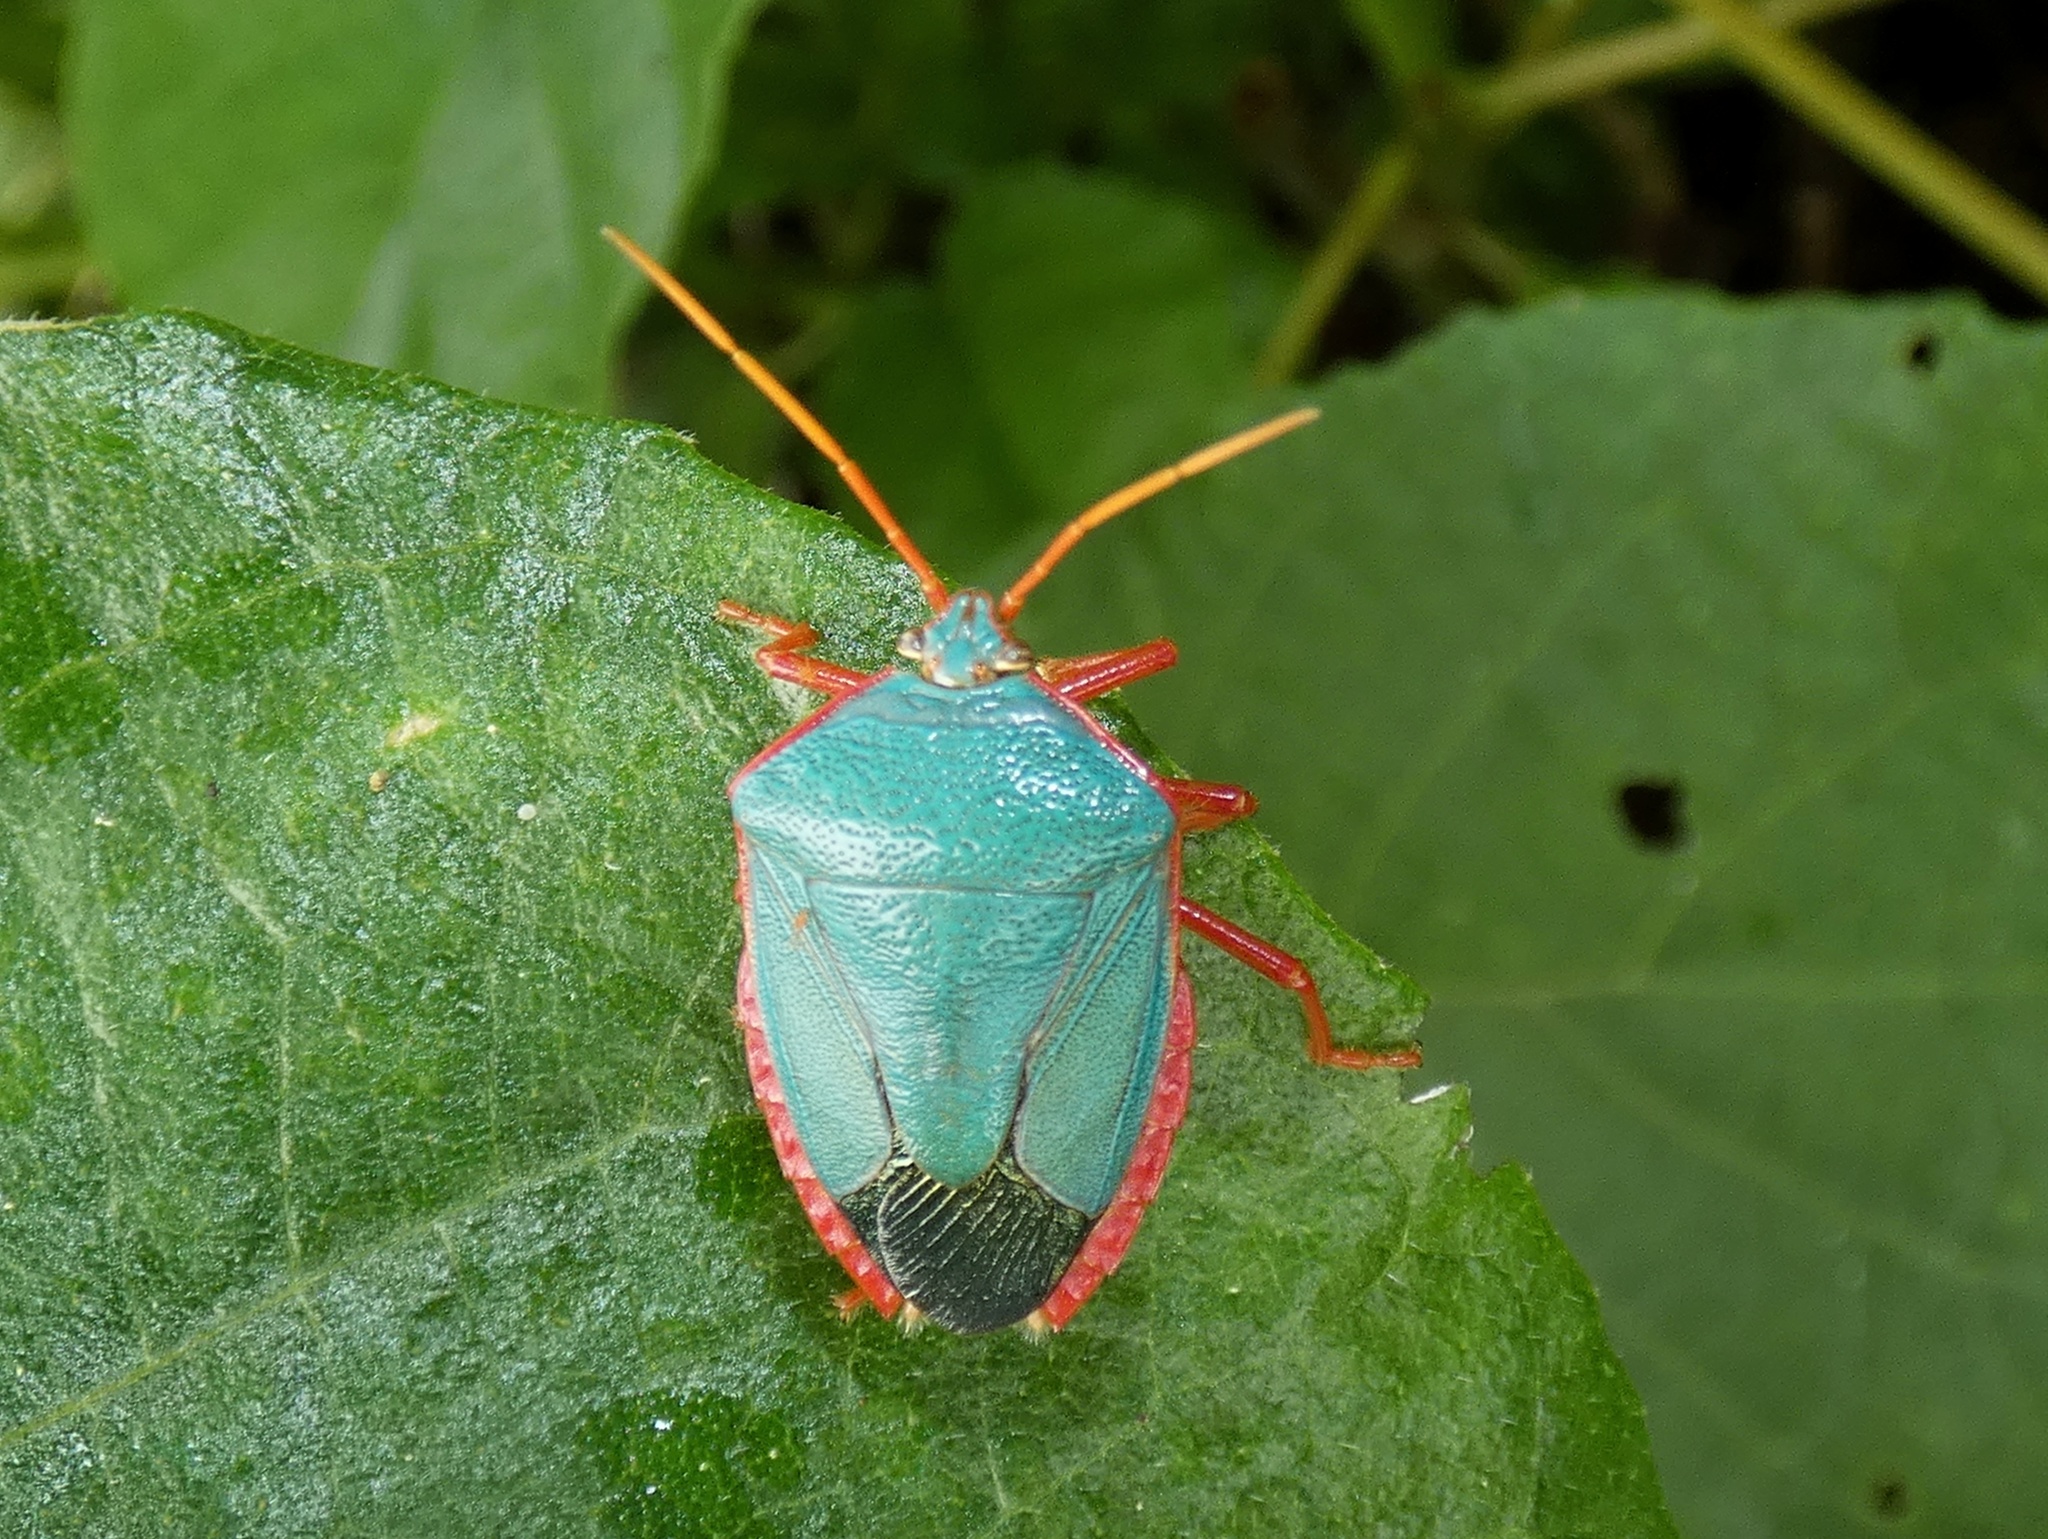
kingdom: Animalia
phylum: Arthropoda
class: Insecta
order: Hemiptera
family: Pentatomidae
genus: Edessa
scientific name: Edessa rufomarginata
